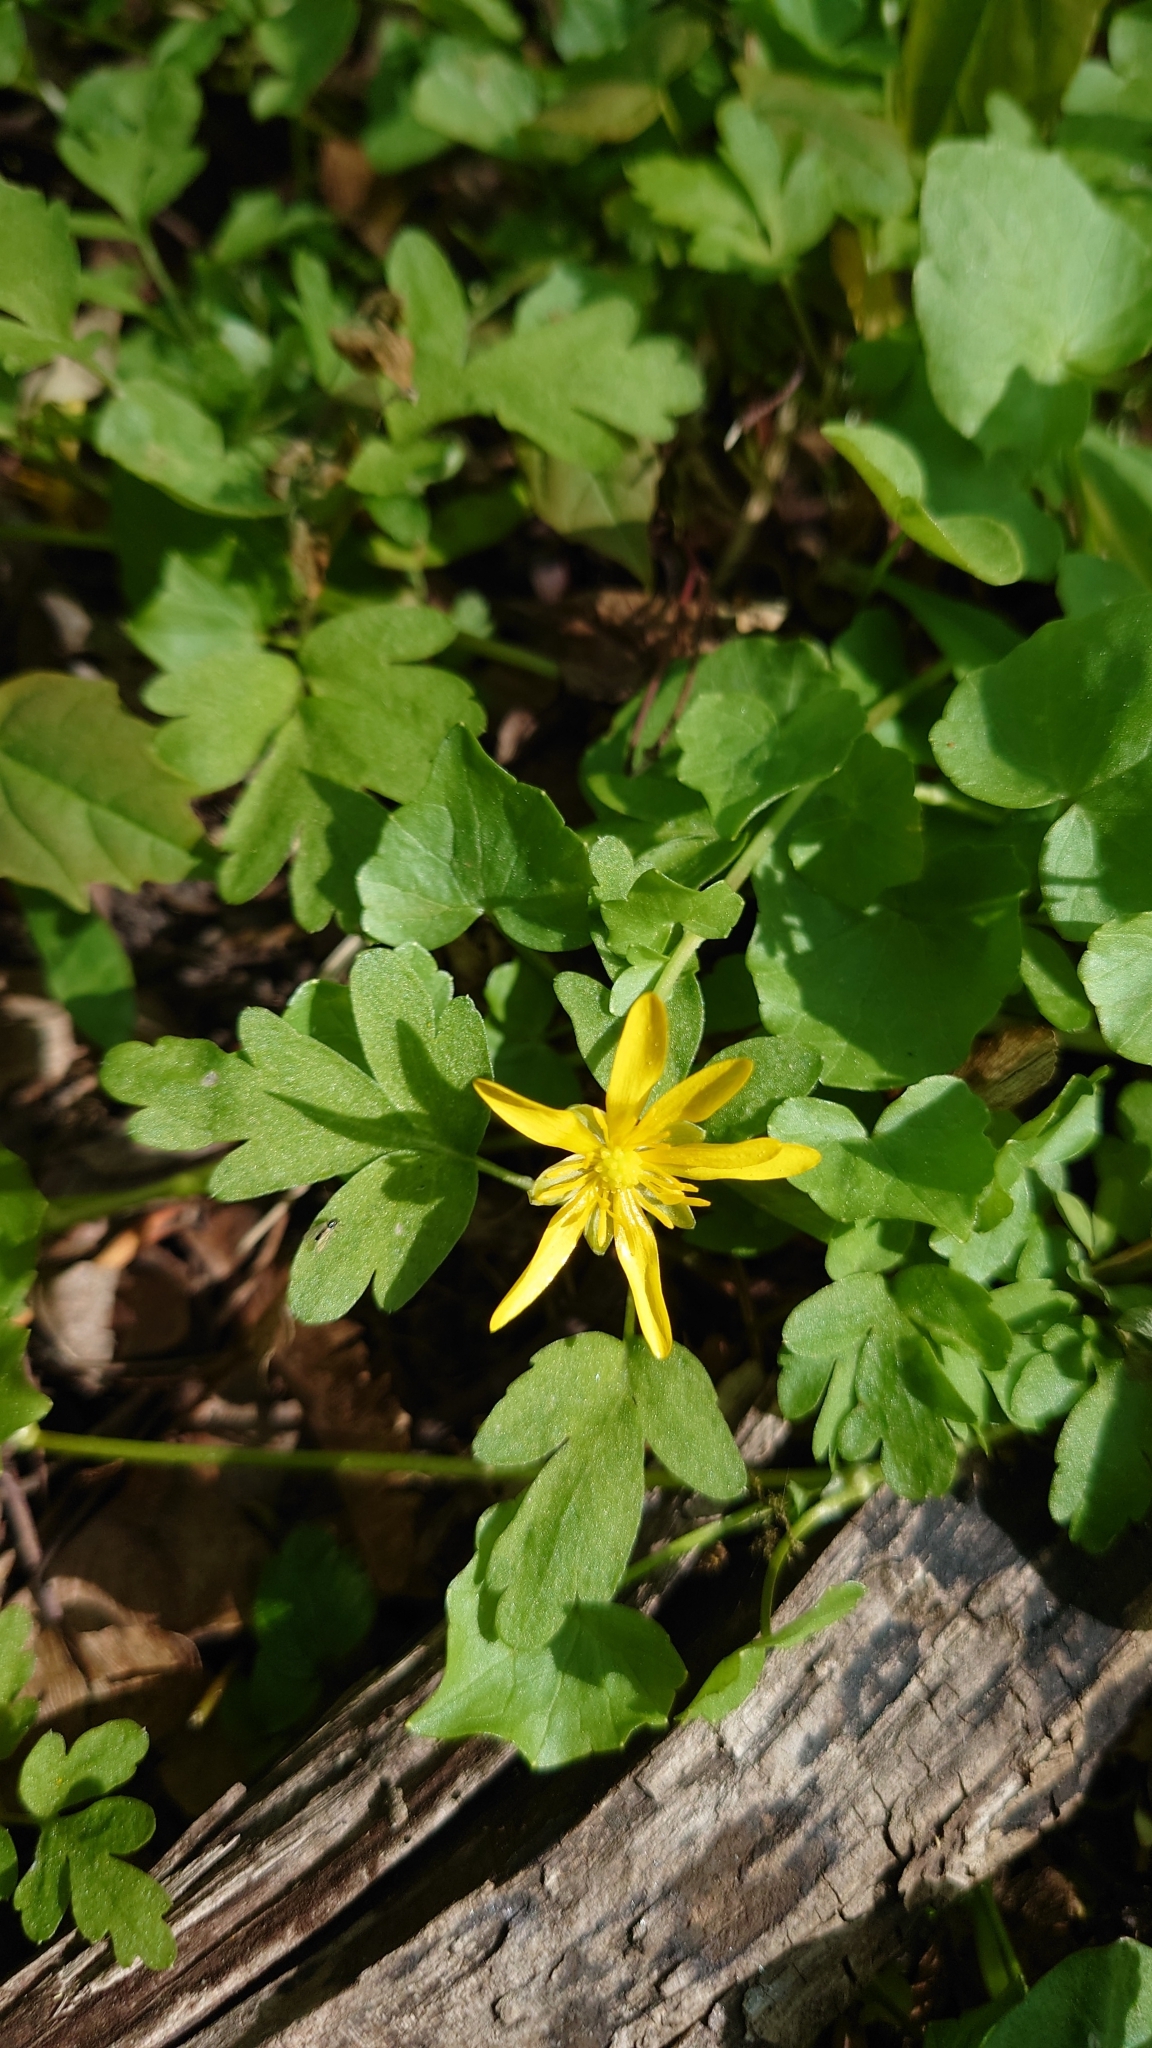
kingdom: Plantae
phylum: Tracheophyta
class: Magnoliopsida
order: Ranunculales
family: Ranunculaceae
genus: Ficaria
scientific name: Ficaria verna
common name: Lesser celandine
